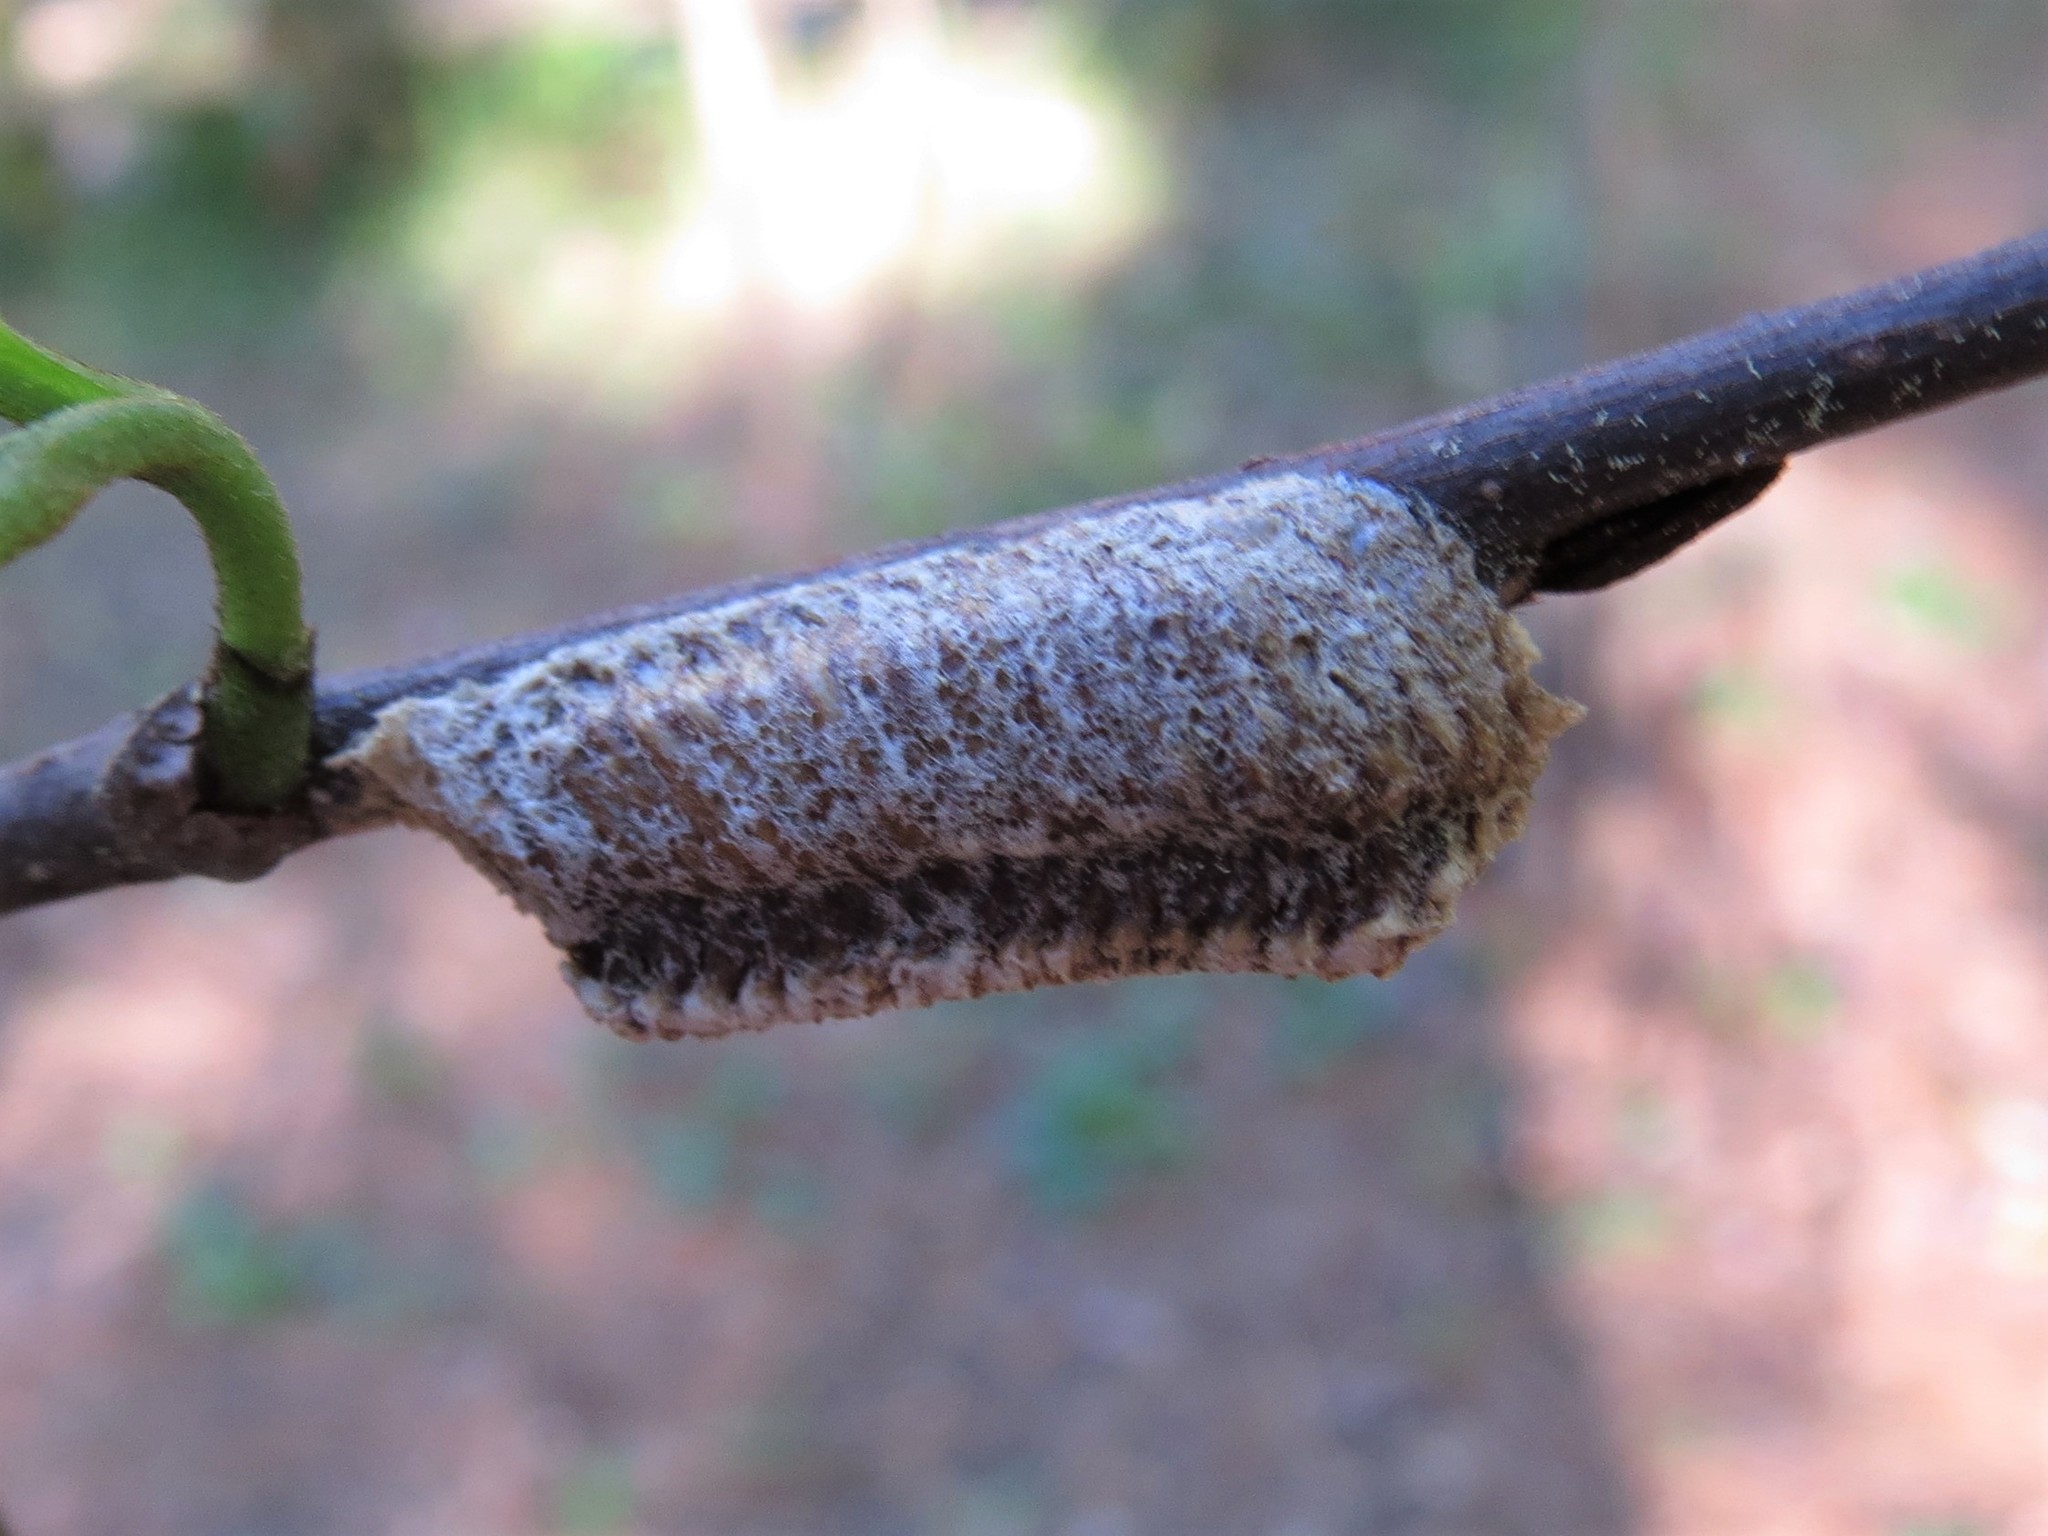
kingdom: Animalia
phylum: Arthropoda
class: Insecta
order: Mantodea
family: Mantidae
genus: Stagmomantis
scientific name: Stagmomantis carolina
